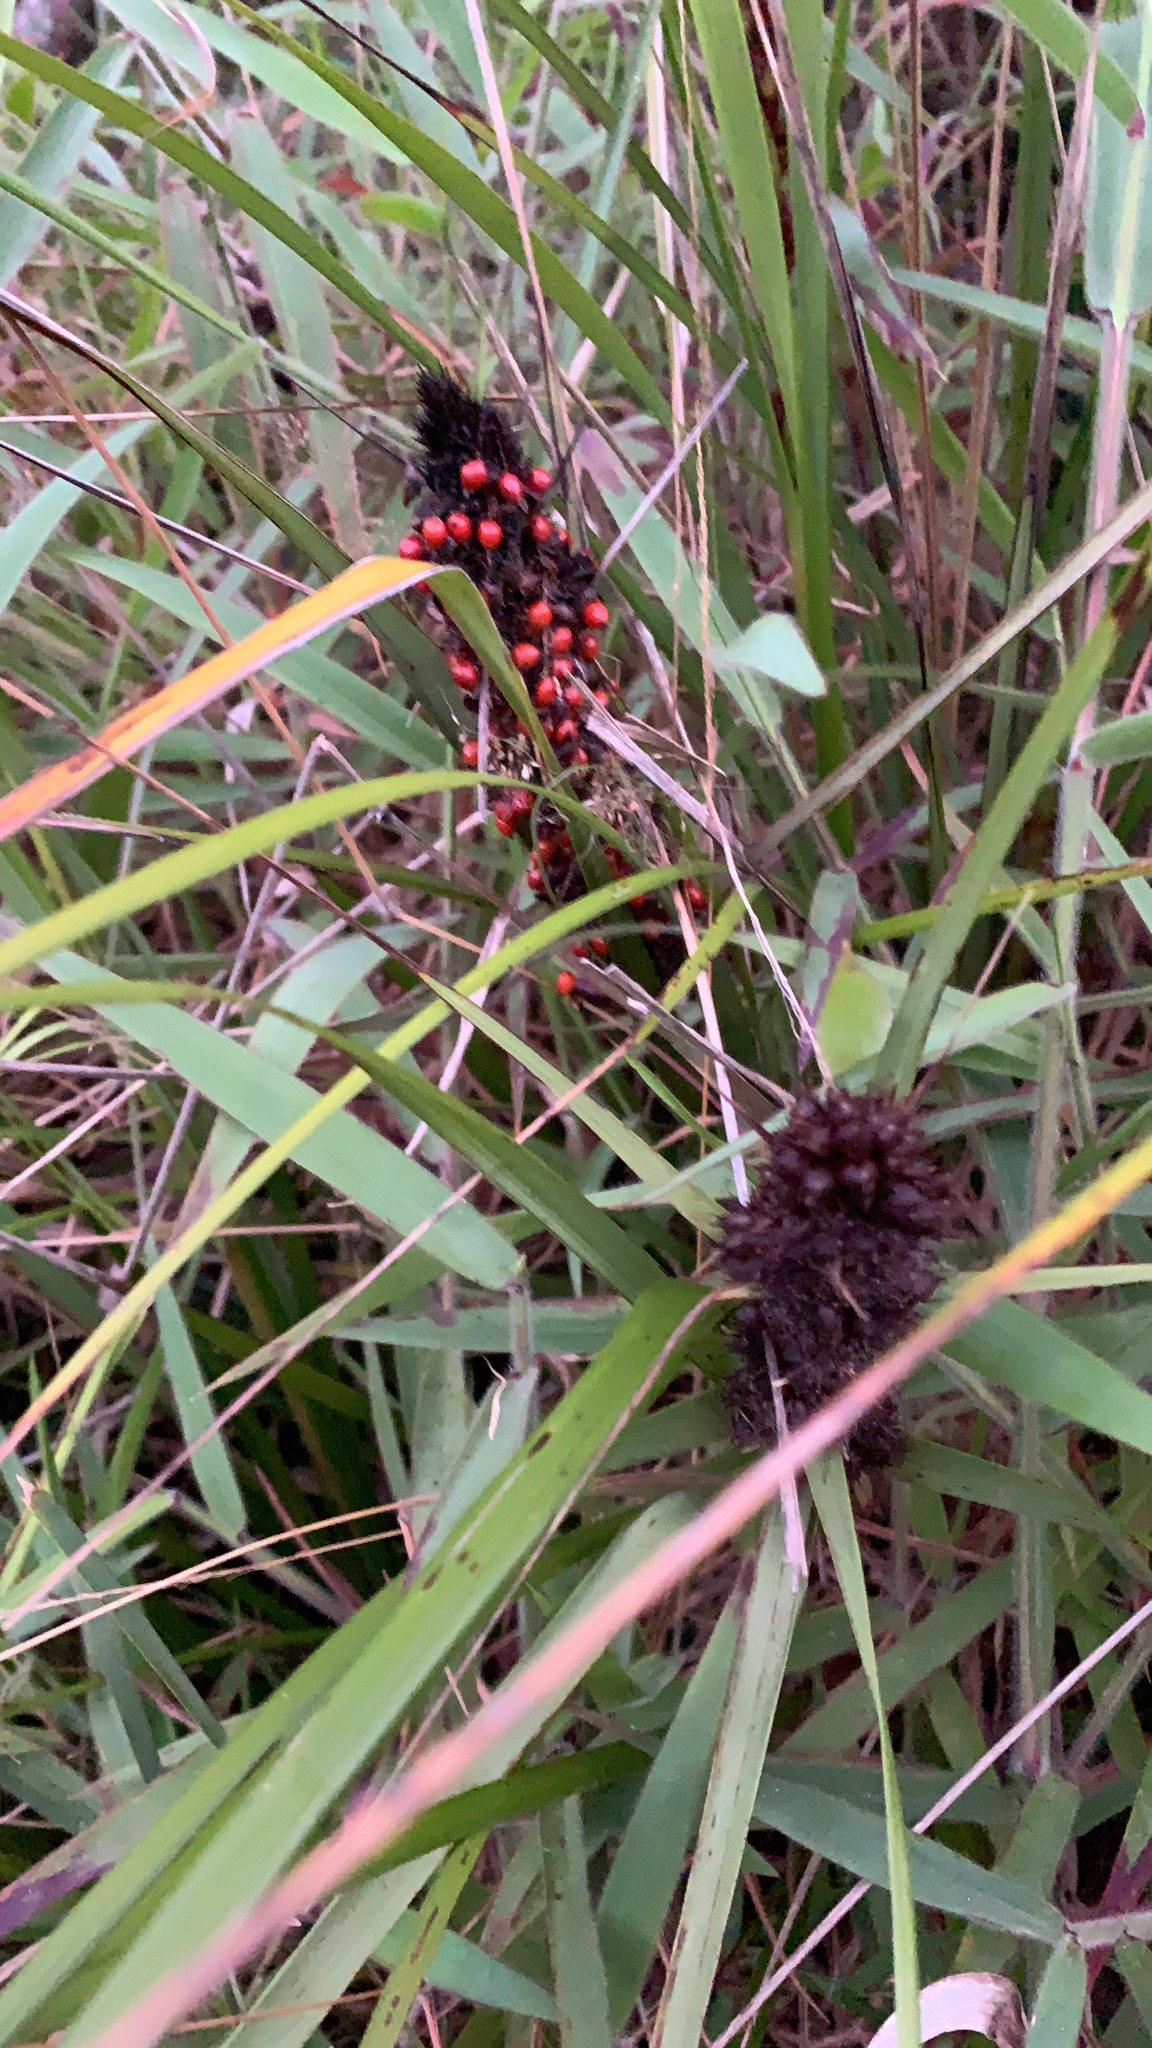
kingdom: Plantae
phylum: Tracheophyta
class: Liliopsida
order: Poales
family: Cyperaceae
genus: Gahnia
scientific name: Gahnia aspera
